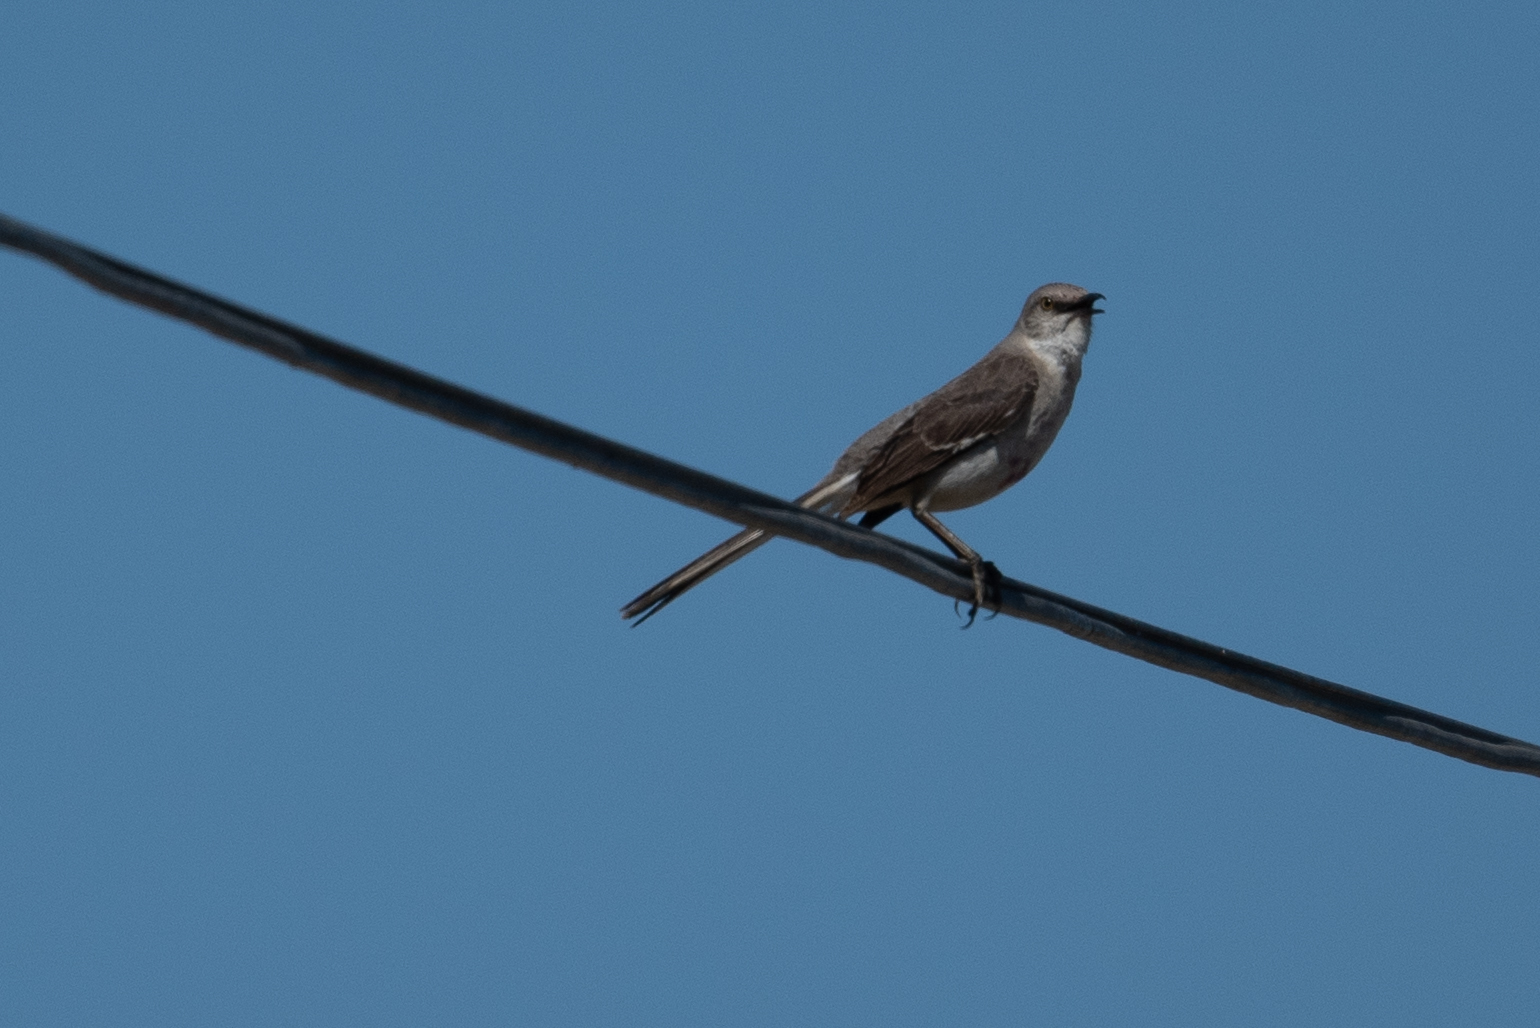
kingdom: Animalia
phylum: Chordata
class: Aves
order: Passeriformes
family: Mimidae
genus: Mimus
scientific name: Mimus polyglottos
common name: Northern mockingbird
